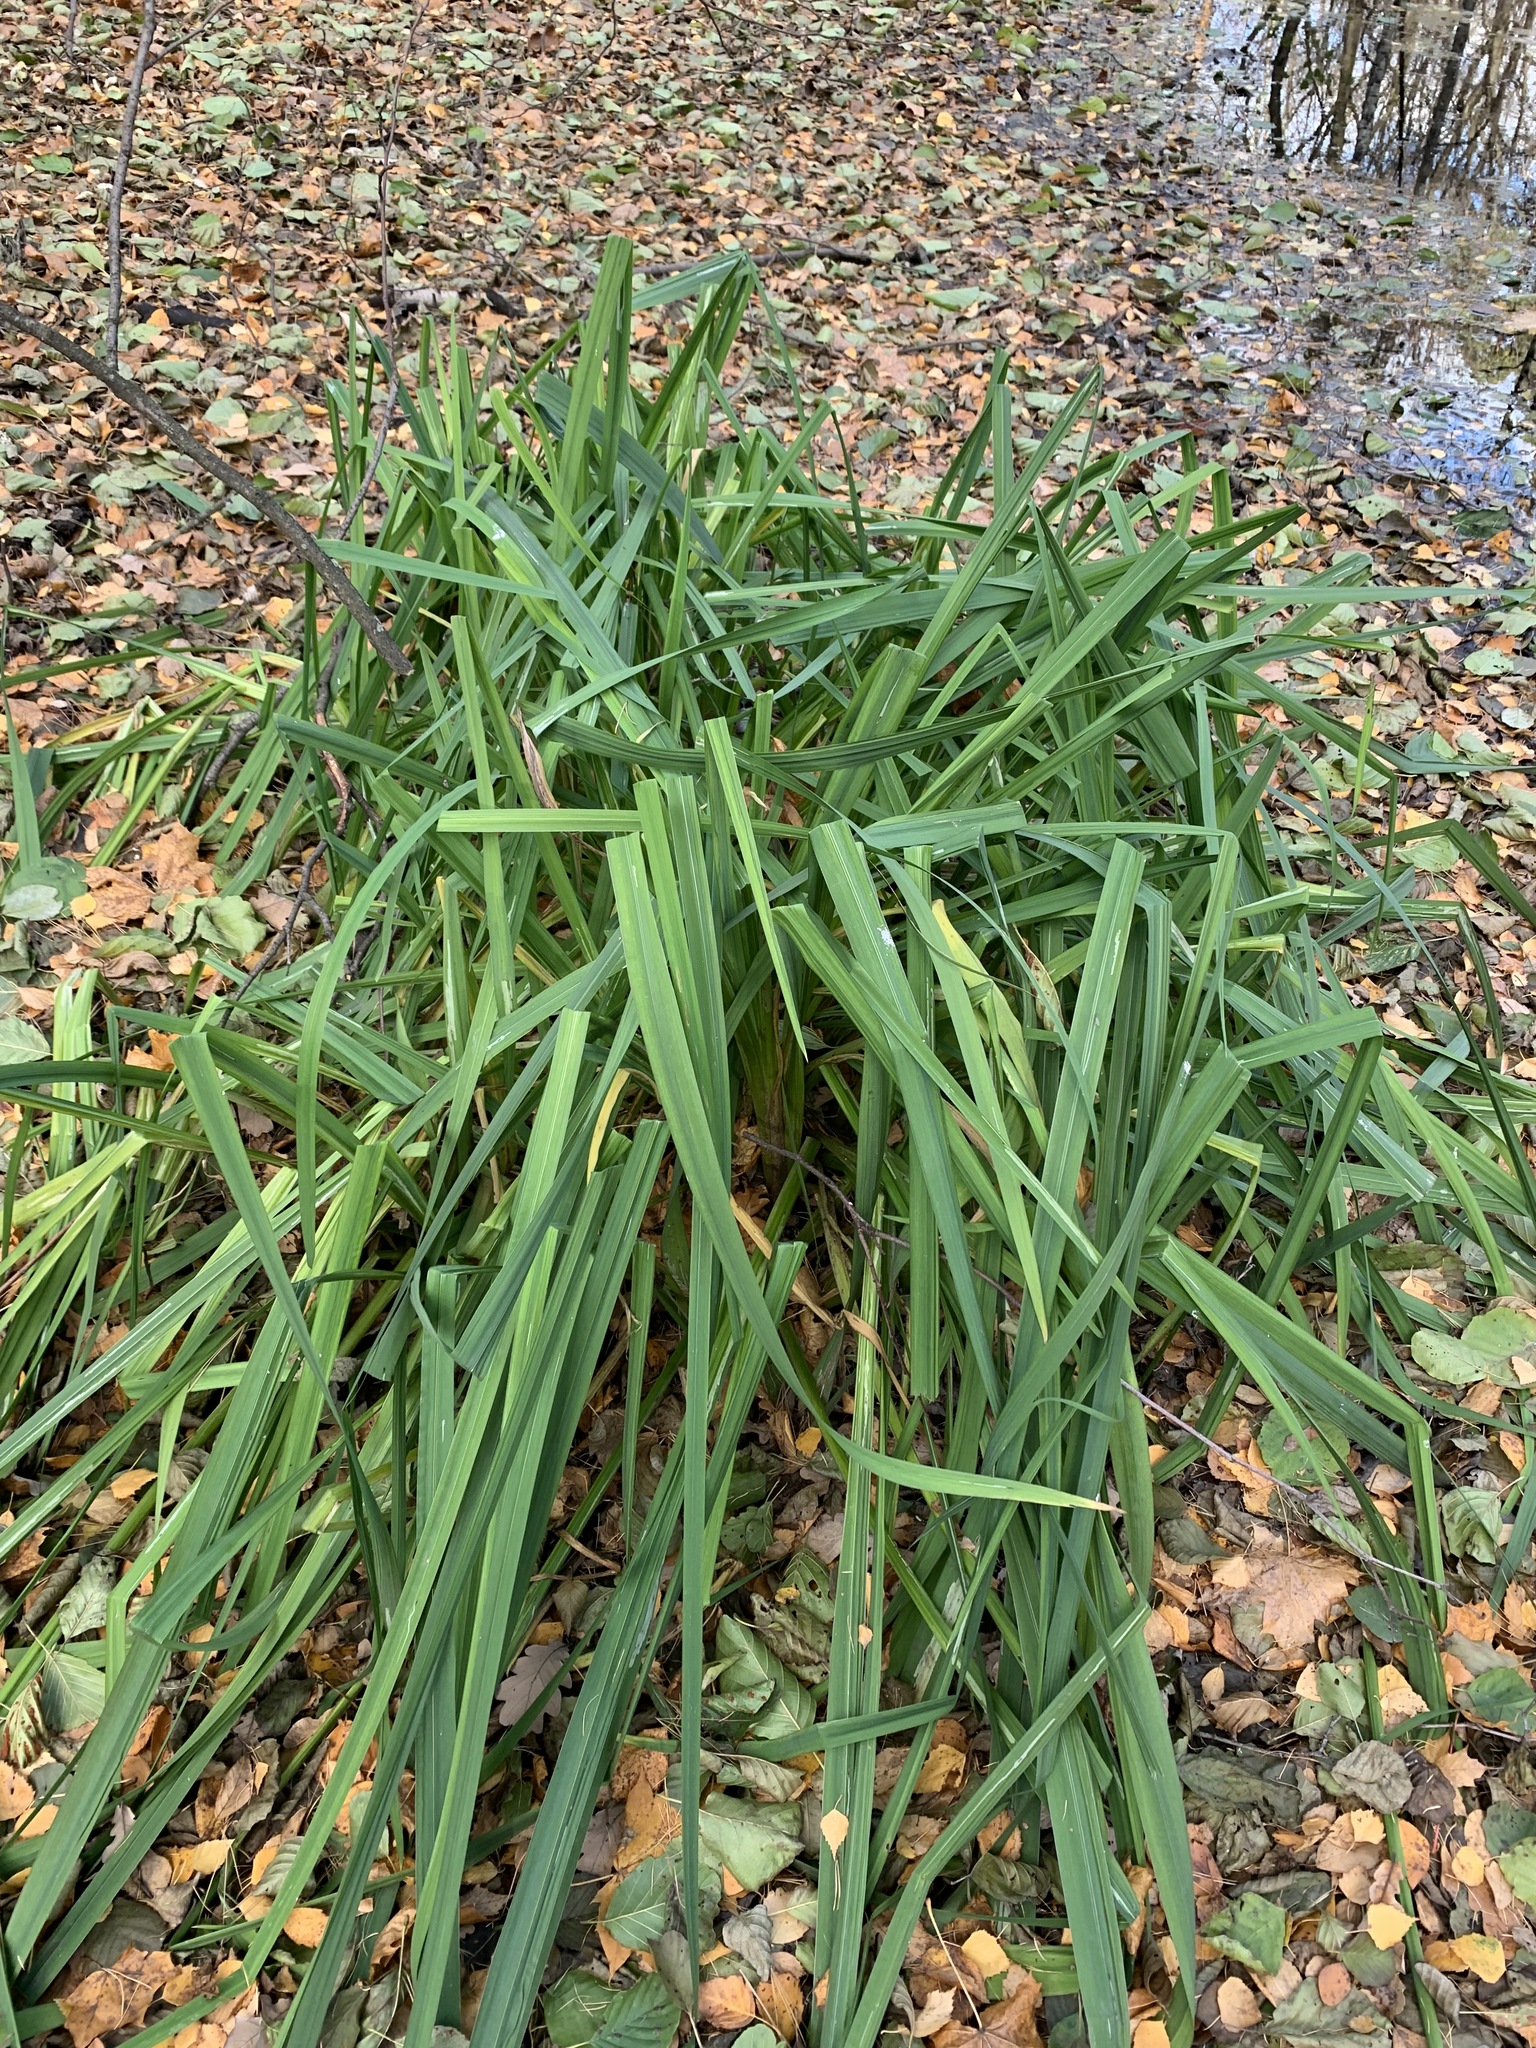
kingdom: Plantae
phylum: Tracheophyta
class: Liliopsida
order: Asparagales
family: Iridaceae
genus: Iris
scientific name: Iris pseudacorus
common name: Yellow flag
